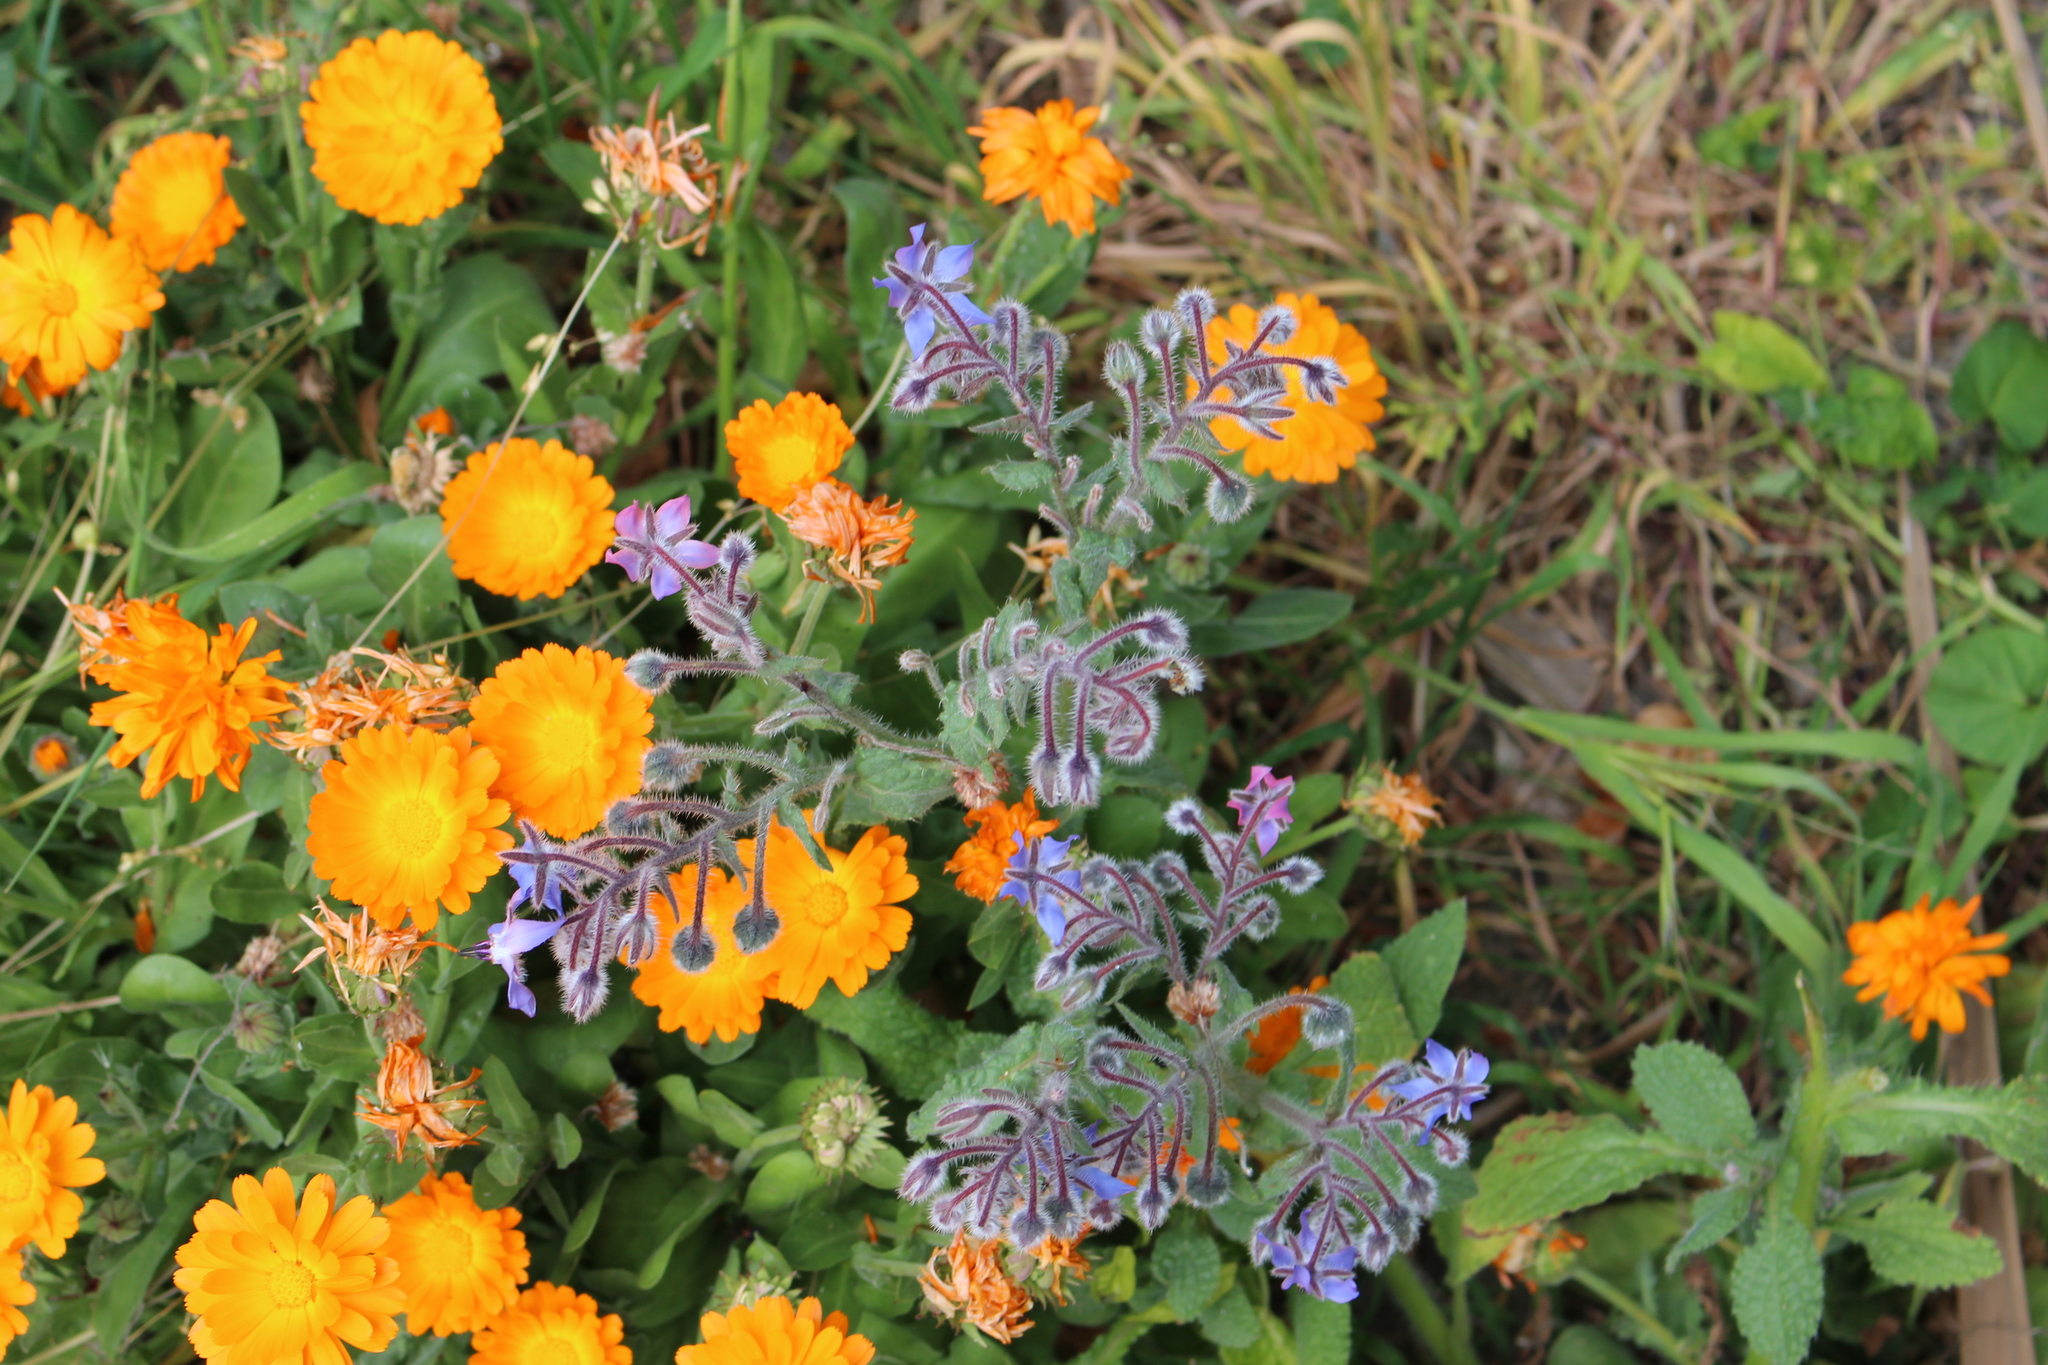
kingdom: Plantae
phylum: Tracheophyta
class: Magnoliopsida
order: Boraginales
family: Boraginaceae
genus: Borago
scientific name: Borago officinalis
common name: Borage
